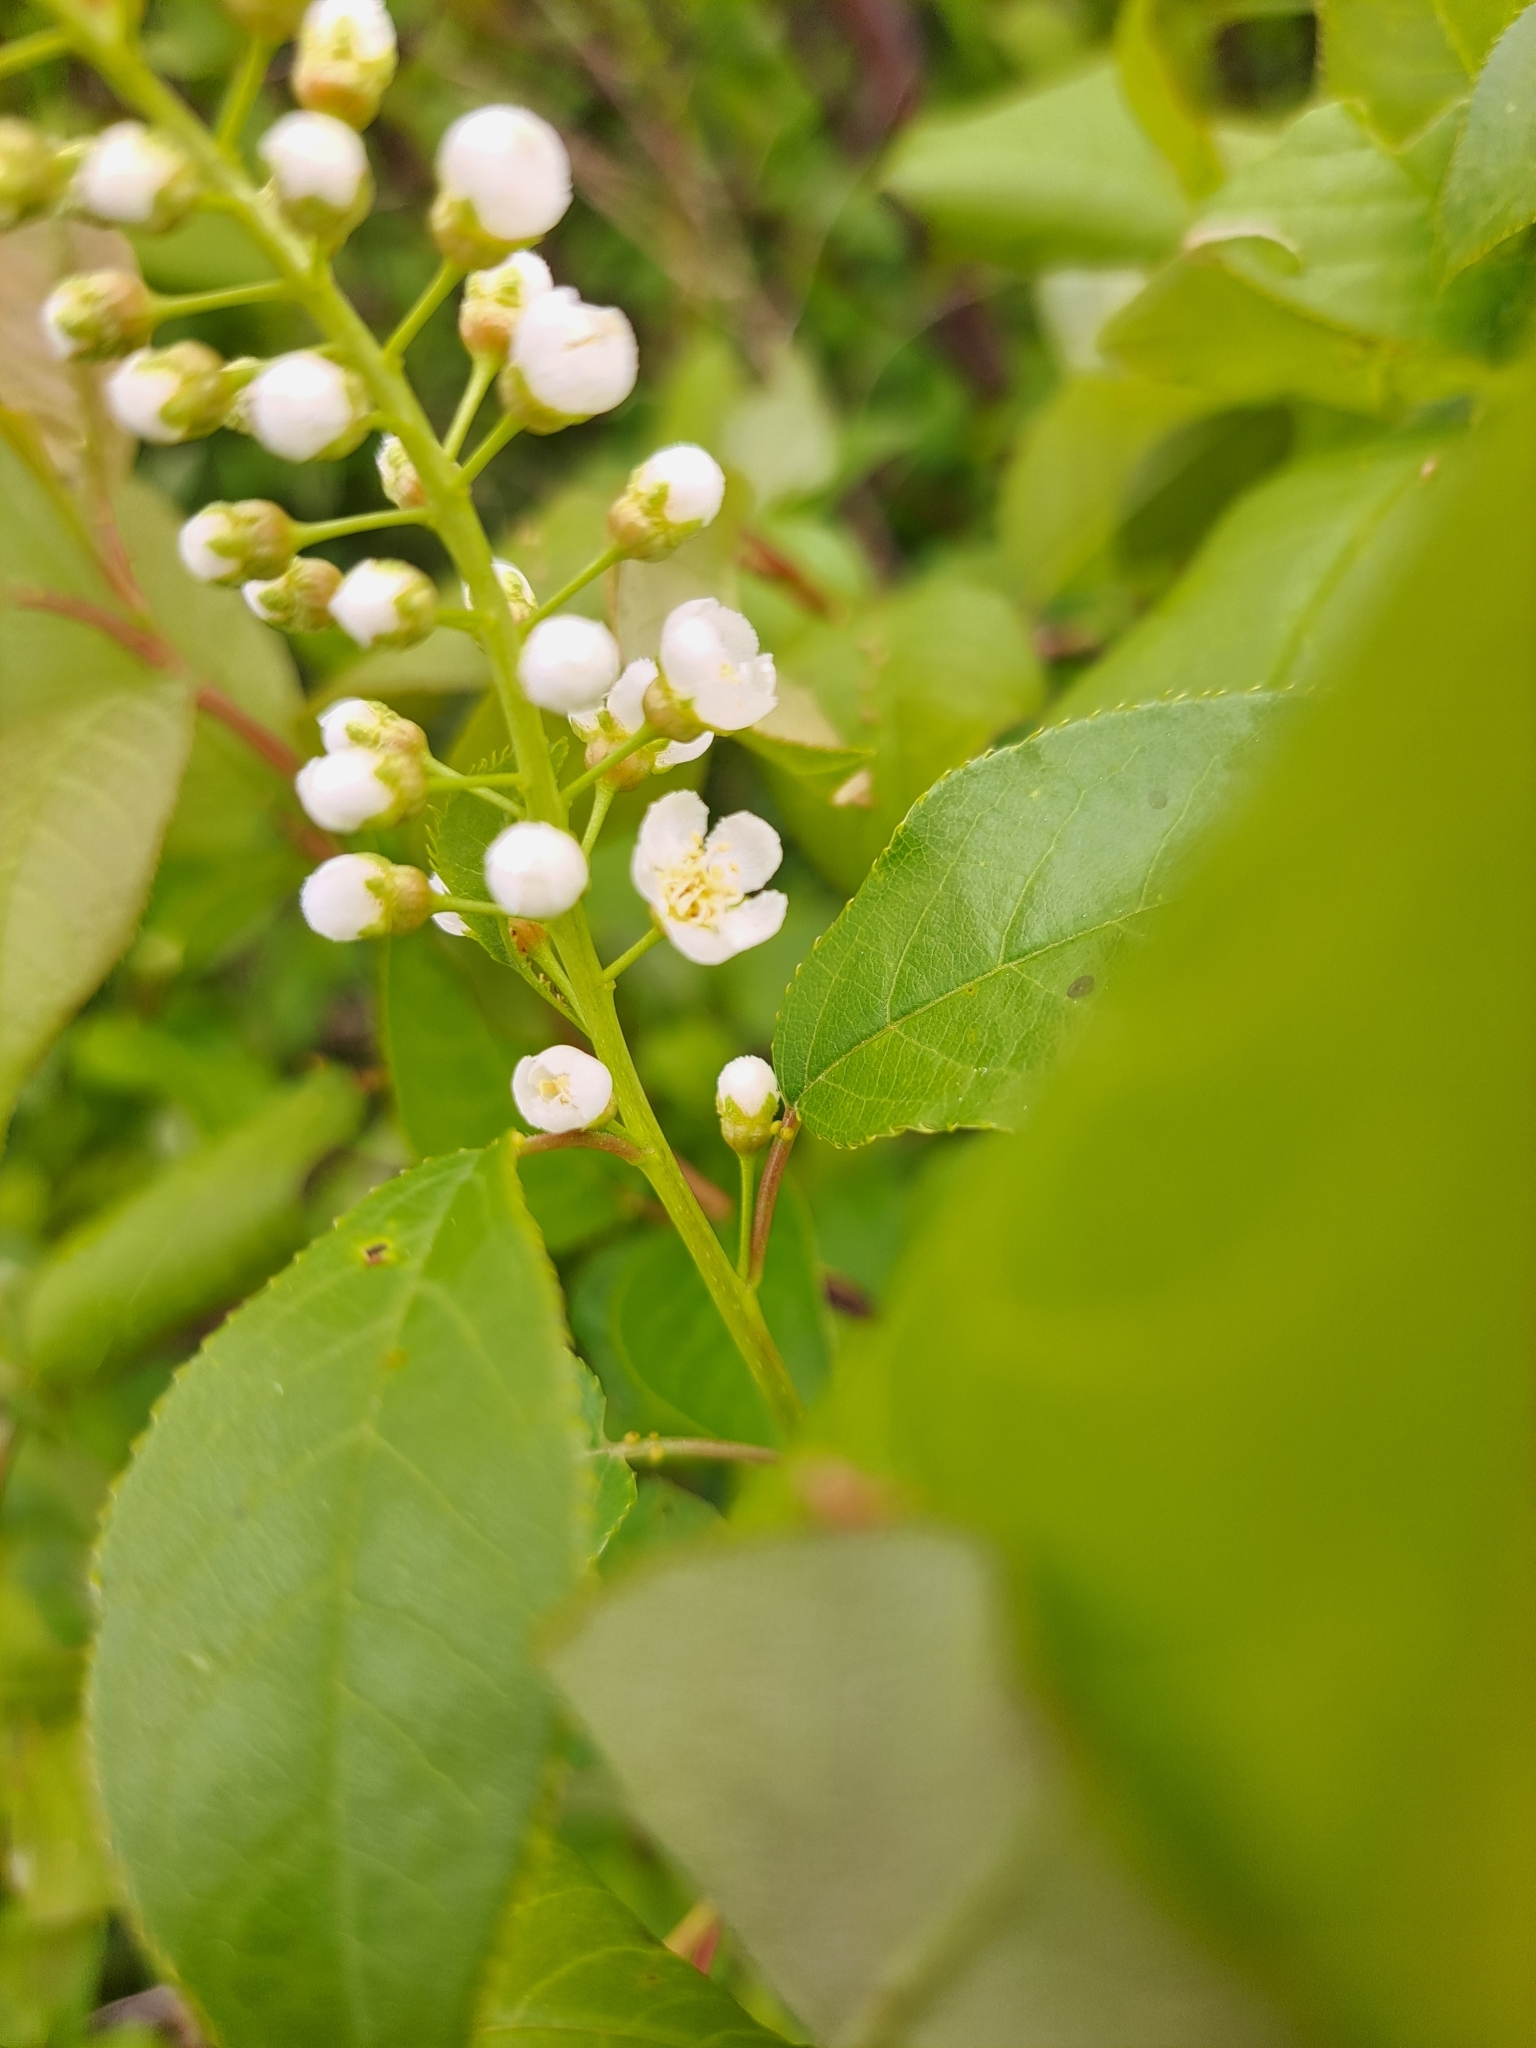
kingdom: Animalia
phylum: Arthropoda
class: Arachnida
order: Trombidiformes
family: Eriophyidae
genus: Eriophyes
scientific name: Eriophyes emarginatae
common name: Plum leaf gall mite
